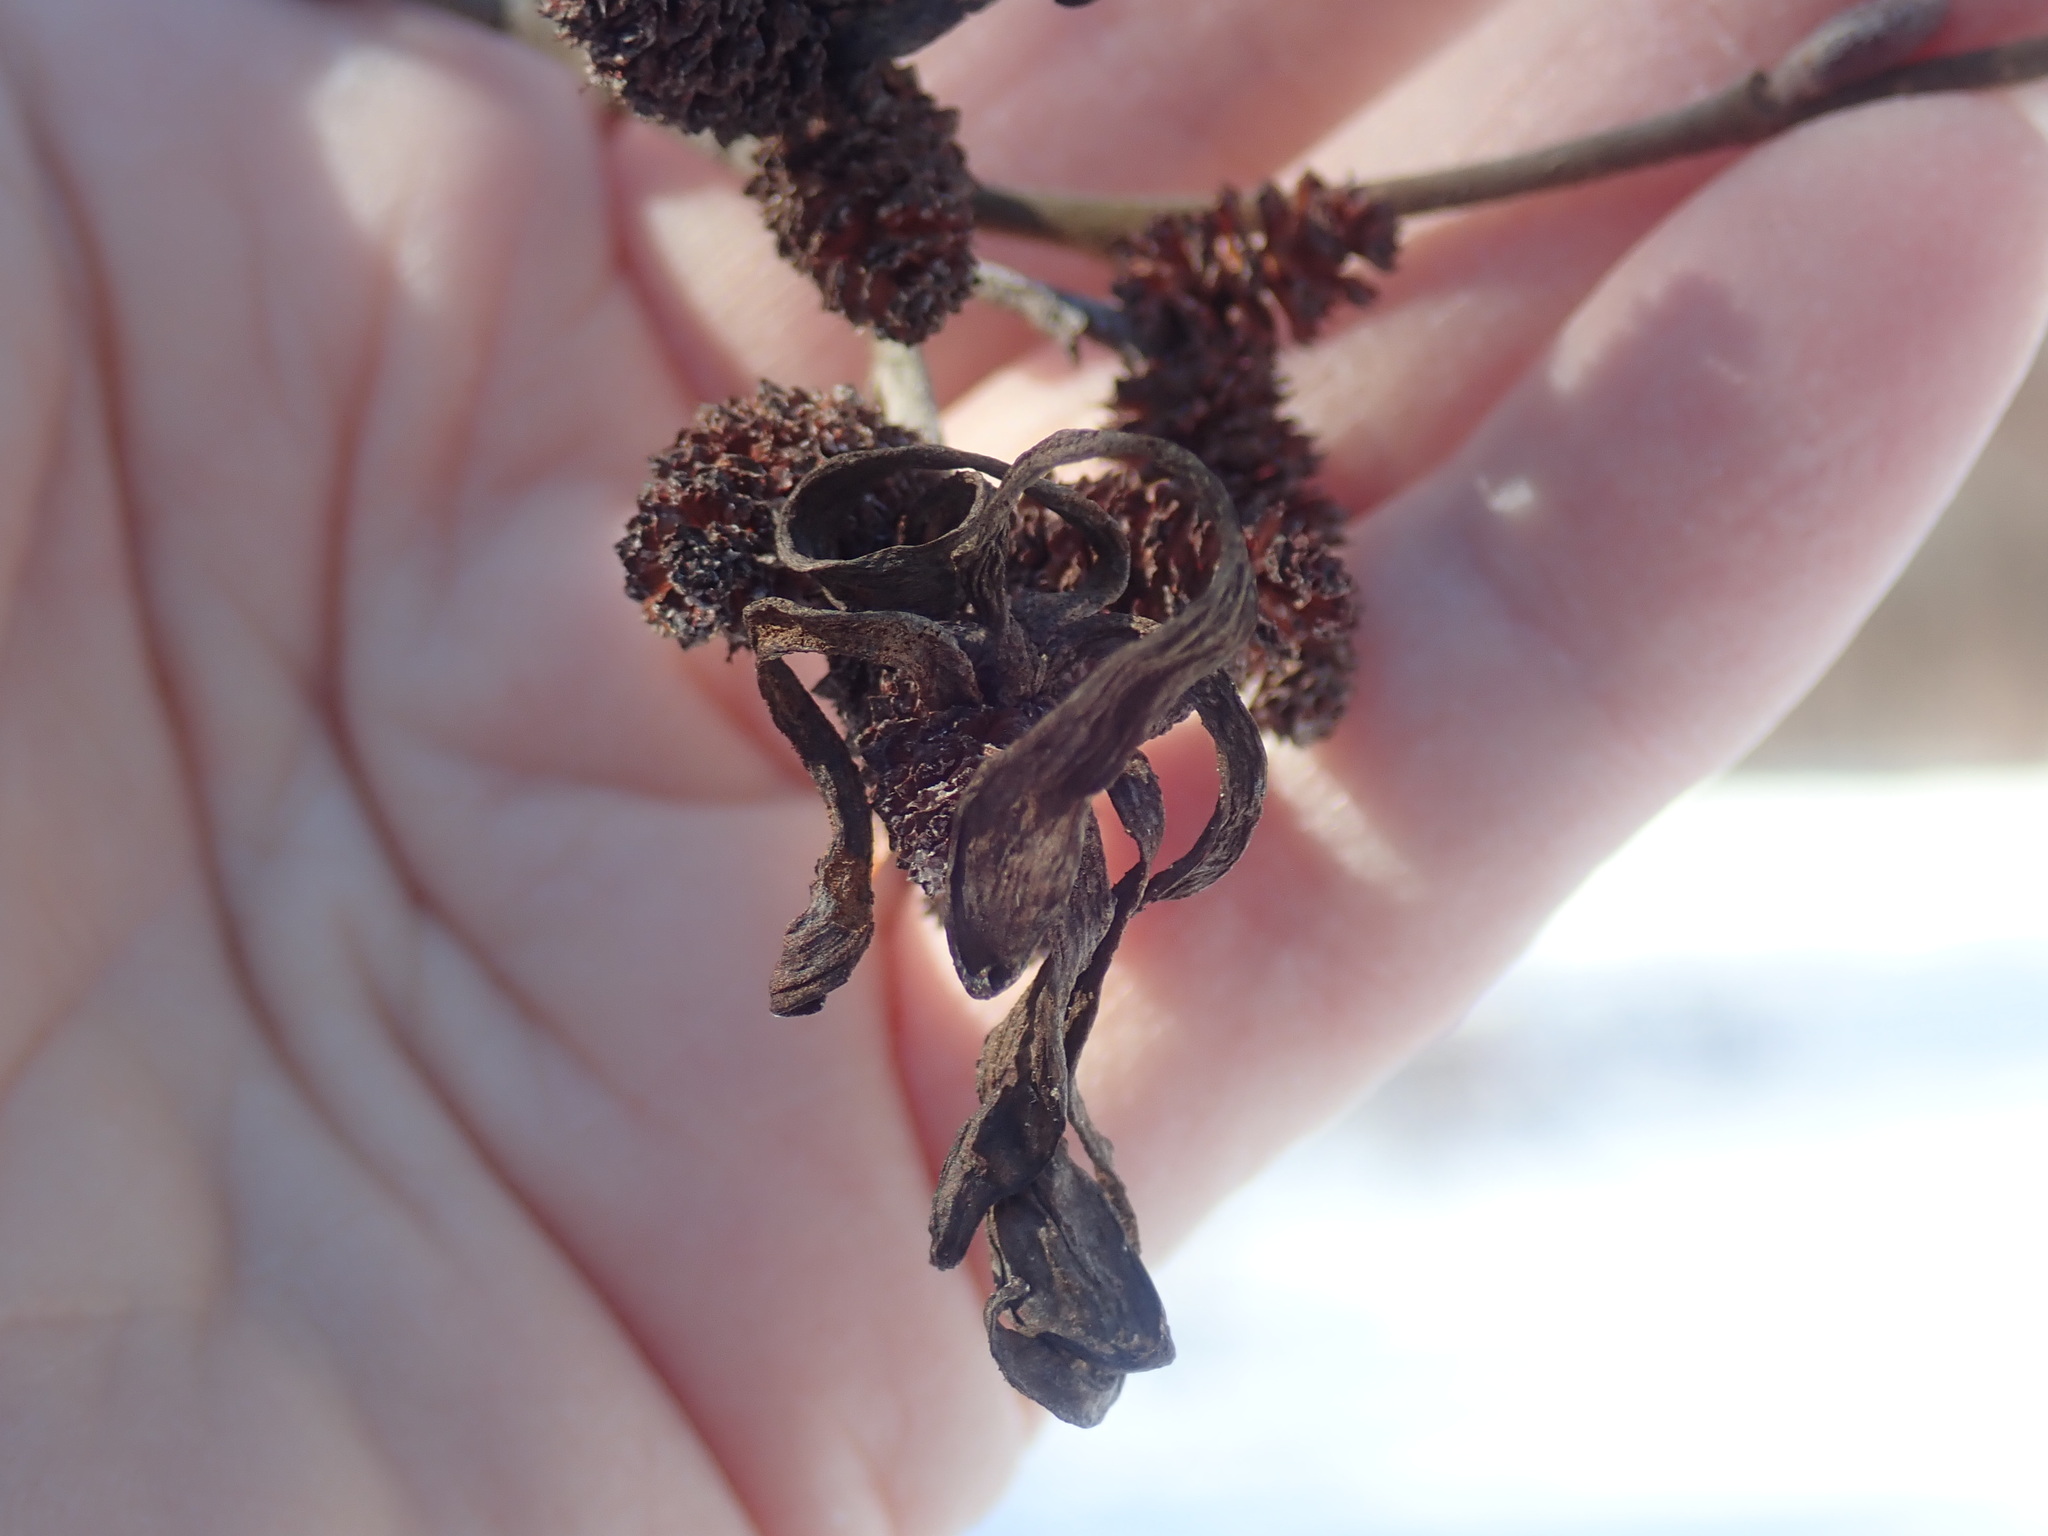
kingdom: Fungi
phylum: Ascomycota
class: Taphrinomycetes
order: Taphrinales
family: Taphrinaceae
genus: Taphrina
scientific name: Taphrina robinsoniana
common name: Eastern american alder tongue gall fungus
